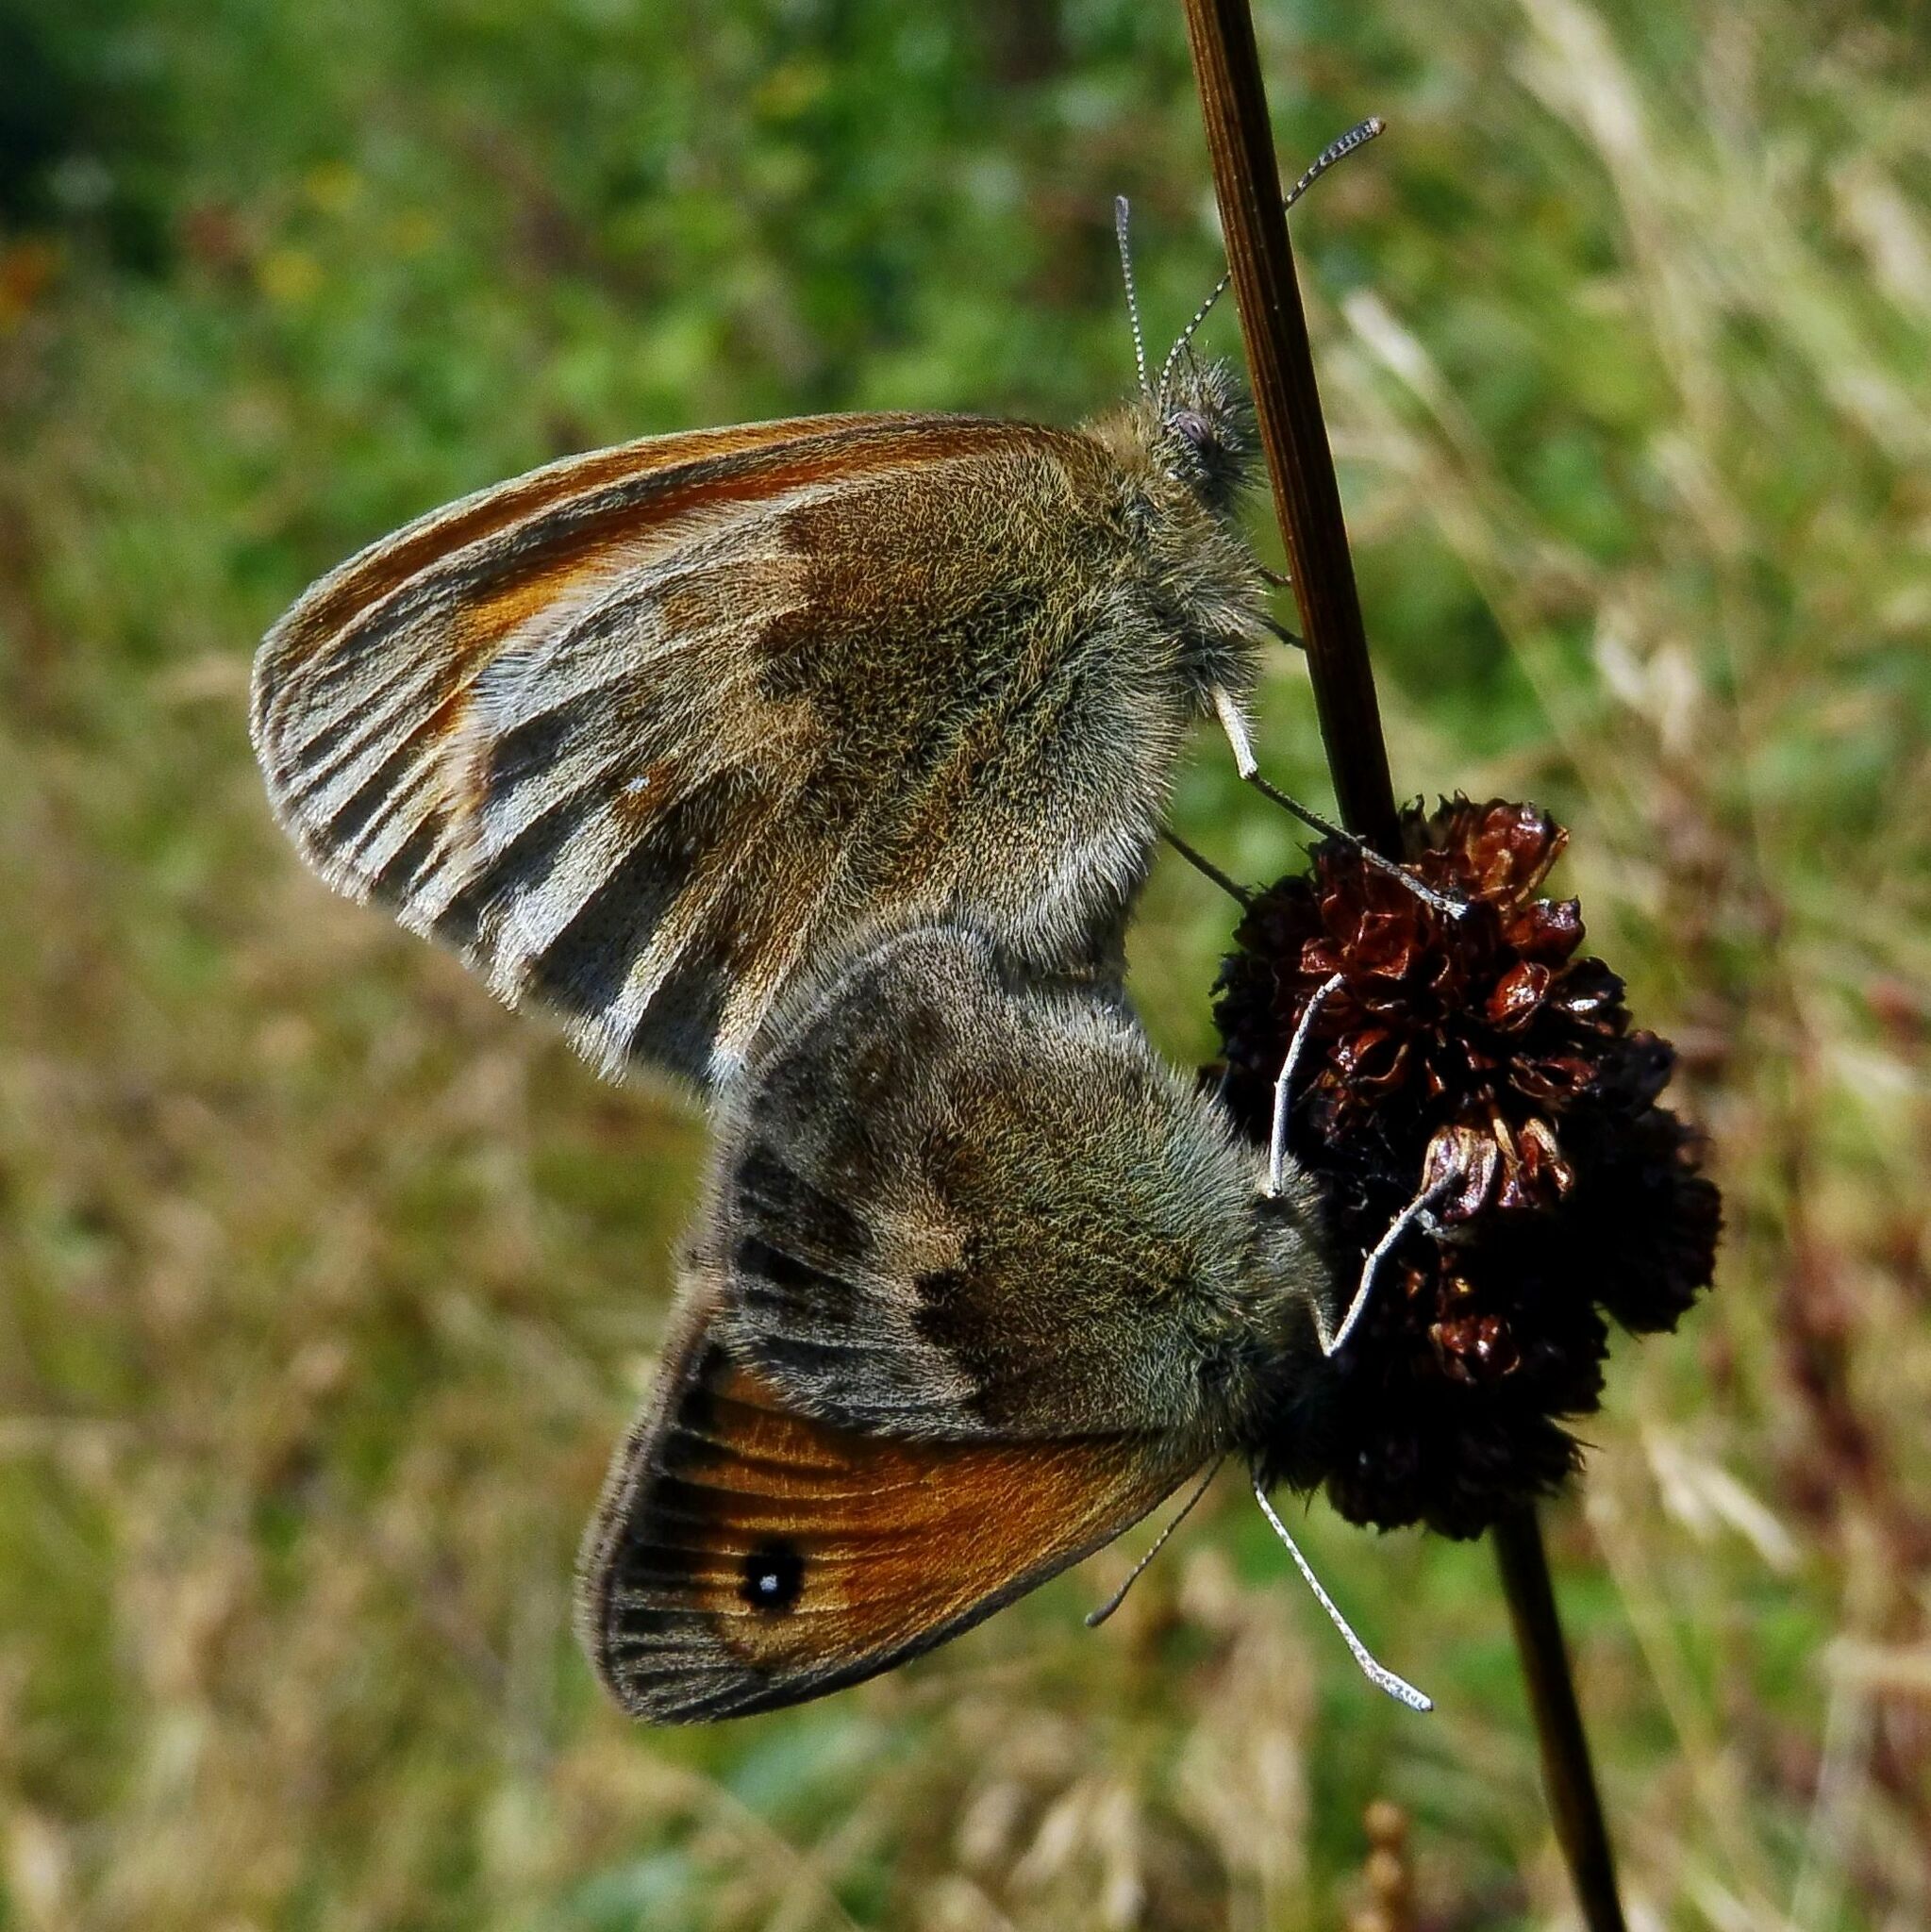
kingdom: Animalia
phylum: Arthropoda
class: Insecta
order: Lepidoptera
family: Nymphalidae
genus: Coenonympha
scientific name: Coenonympha pamphilus
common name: Small heath
